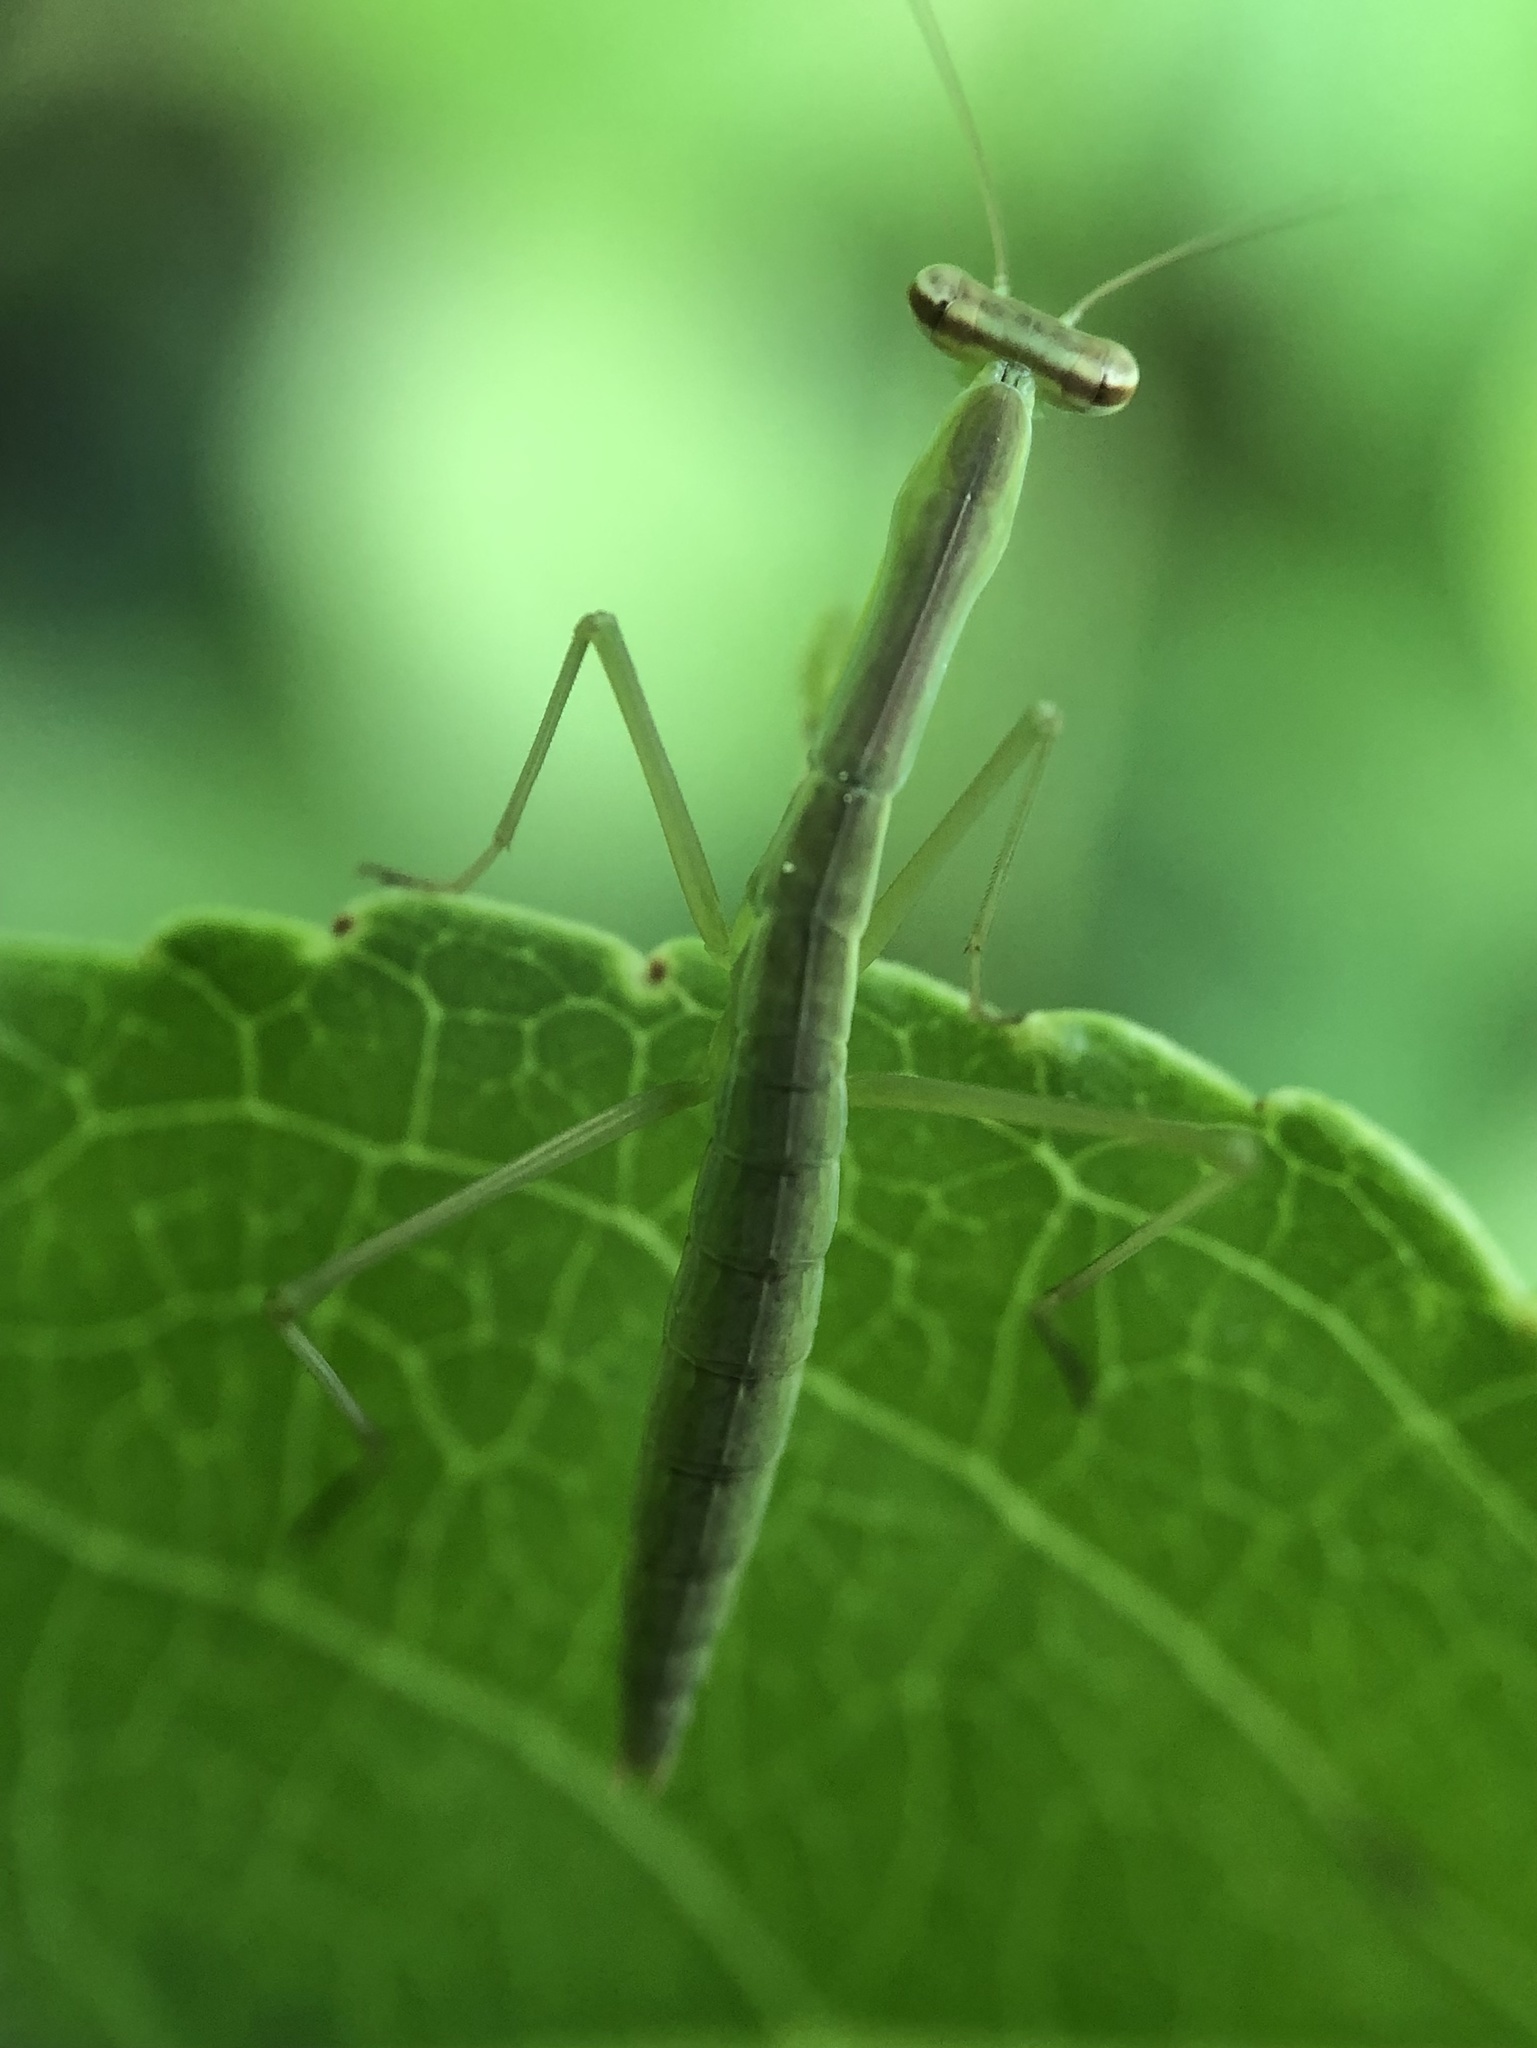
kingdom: Animalia
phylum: Arthropoda
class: Insecta
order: Mantodea
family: Mantidae
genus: Tenodera
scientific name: Tenodera sinensis
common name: Chinese mantis
